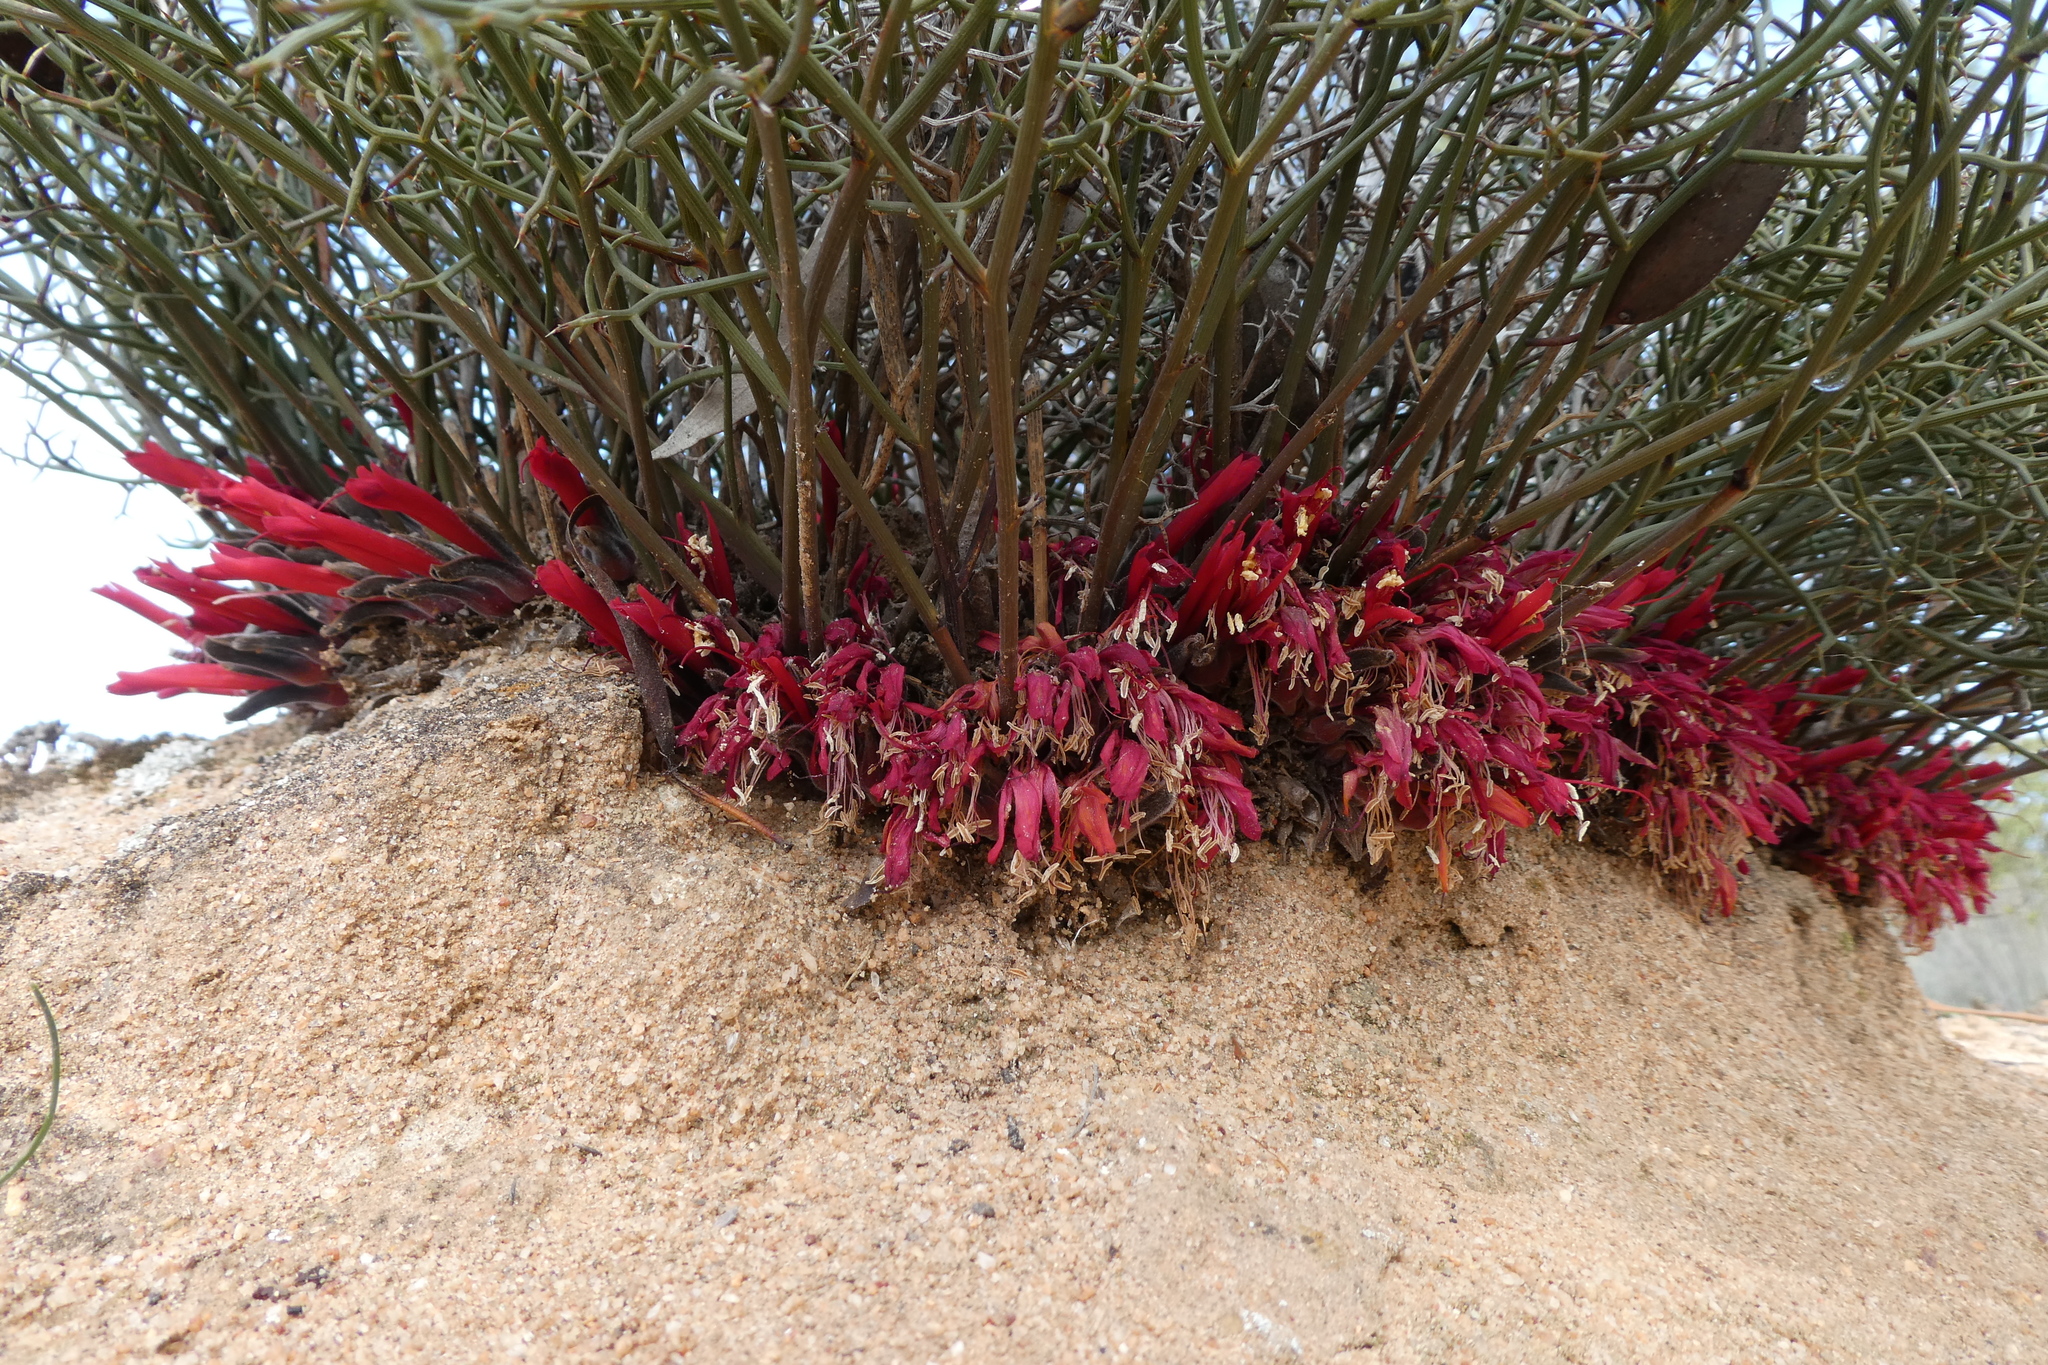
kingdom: Plantae
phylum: Tracheophyta
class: Magnoliopsida
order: Fabales
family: Fabaceae
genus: Leptosema
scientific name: Leptosema daviesioides
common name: Upside-down pea-bush
